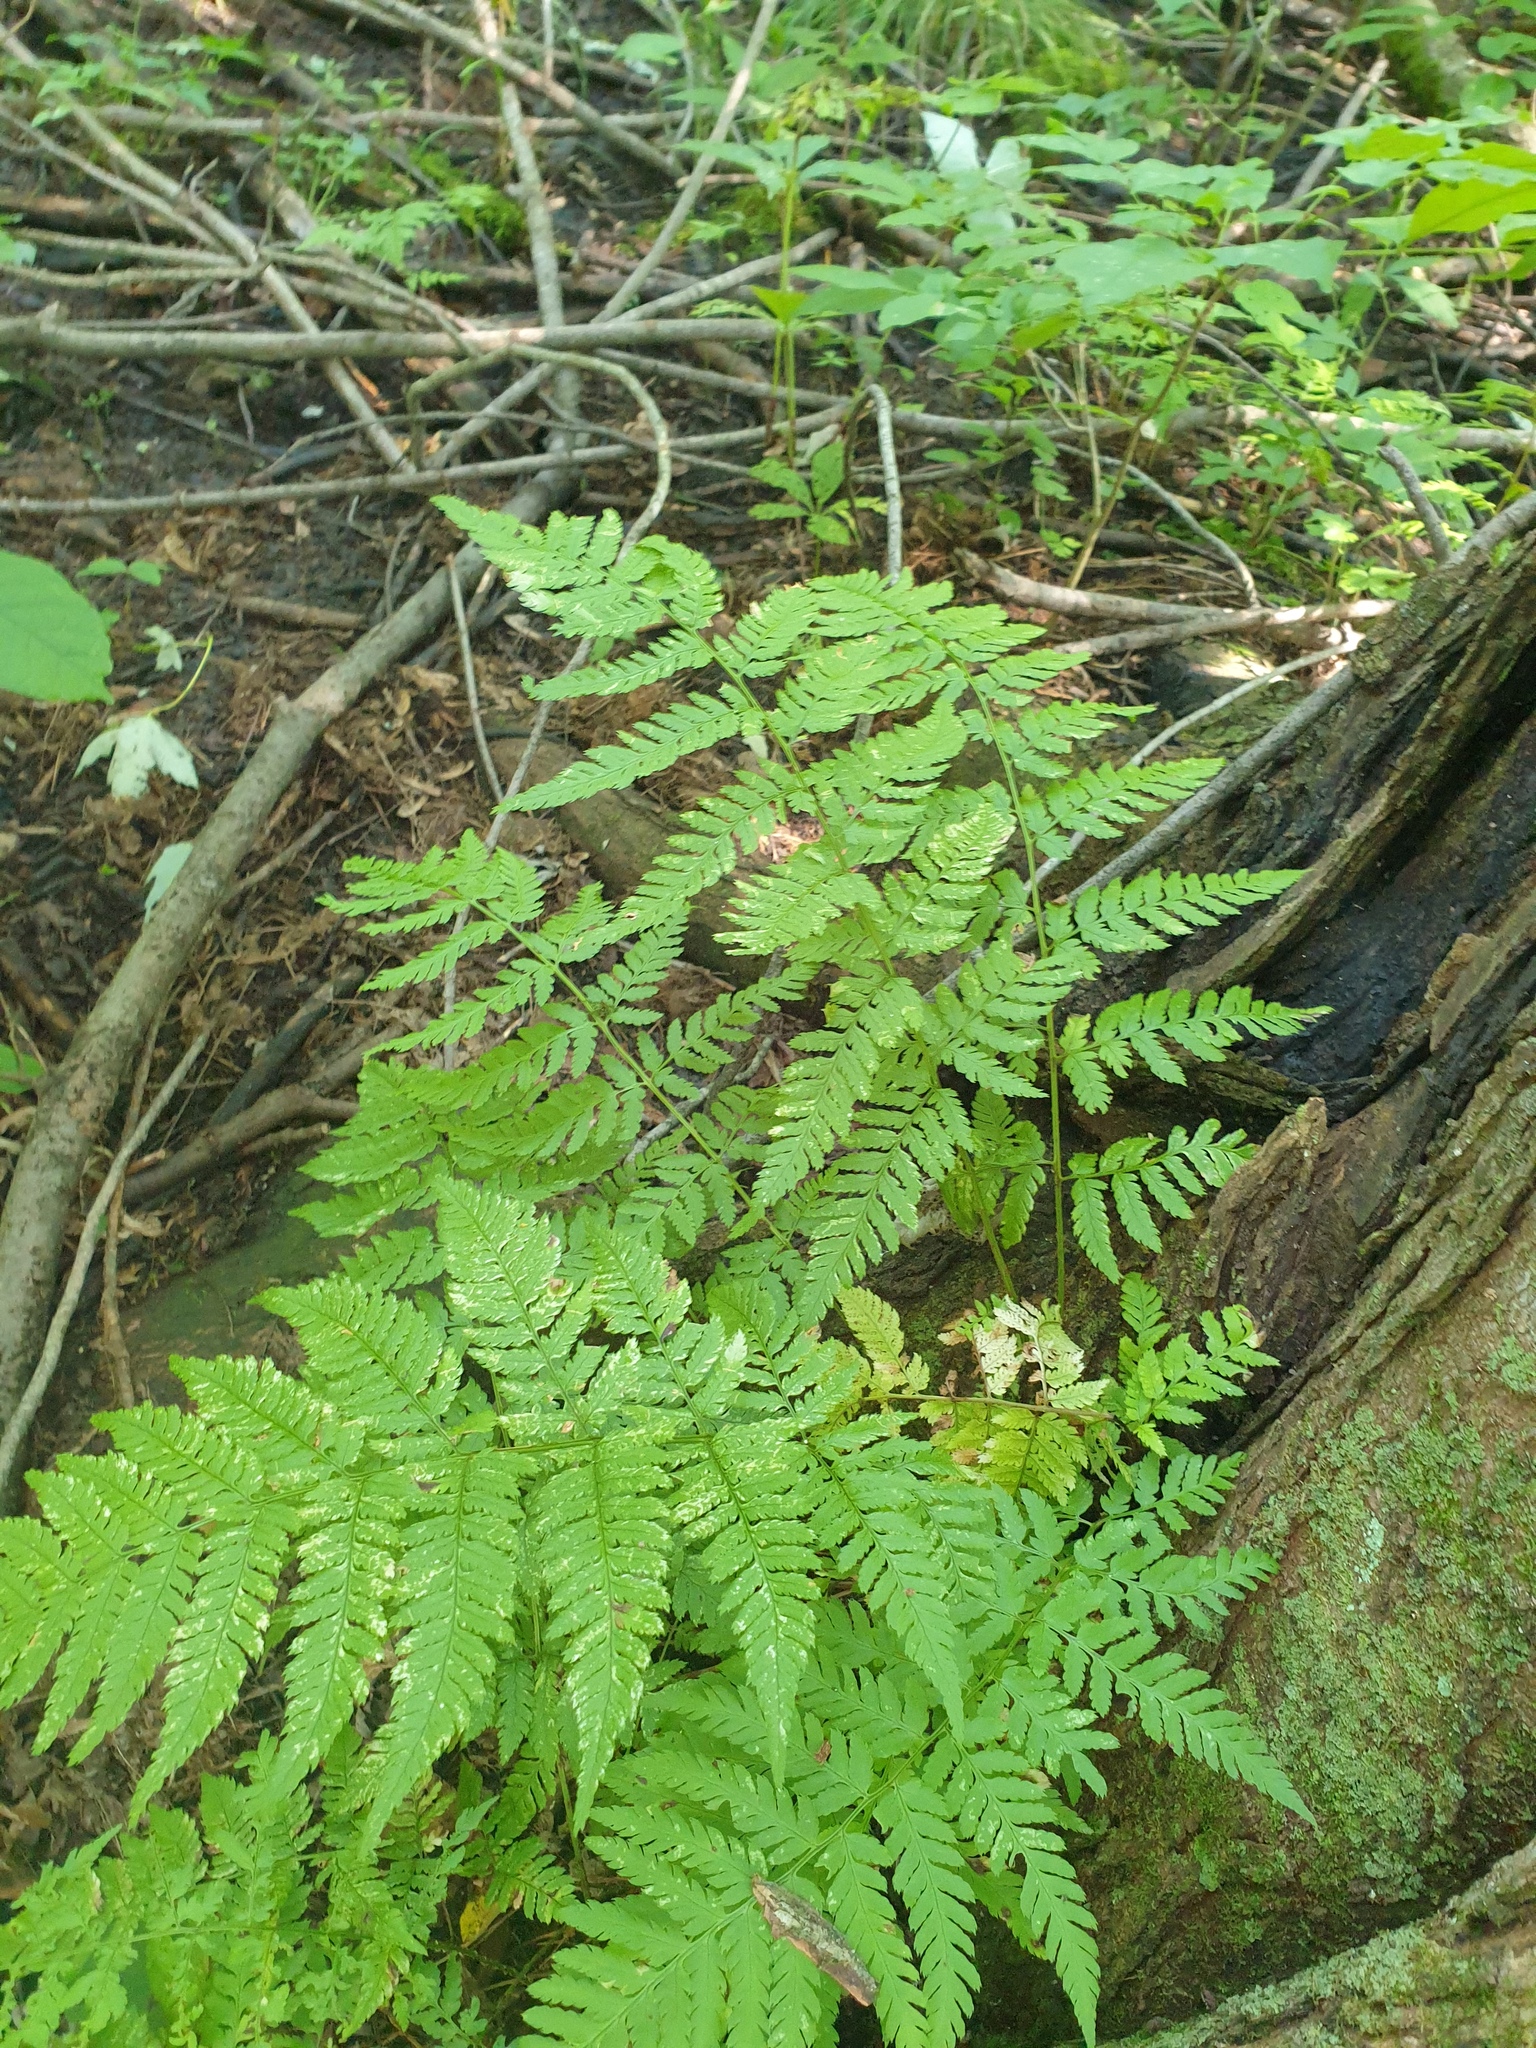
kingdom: Plantae
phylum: Tracheophyta
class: Polypodiopsida
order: Polypodiales
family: Dryopteridaceae
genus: Dryopteris
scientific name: Dryopteris carthusiana
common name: Narrow buckler-fern
